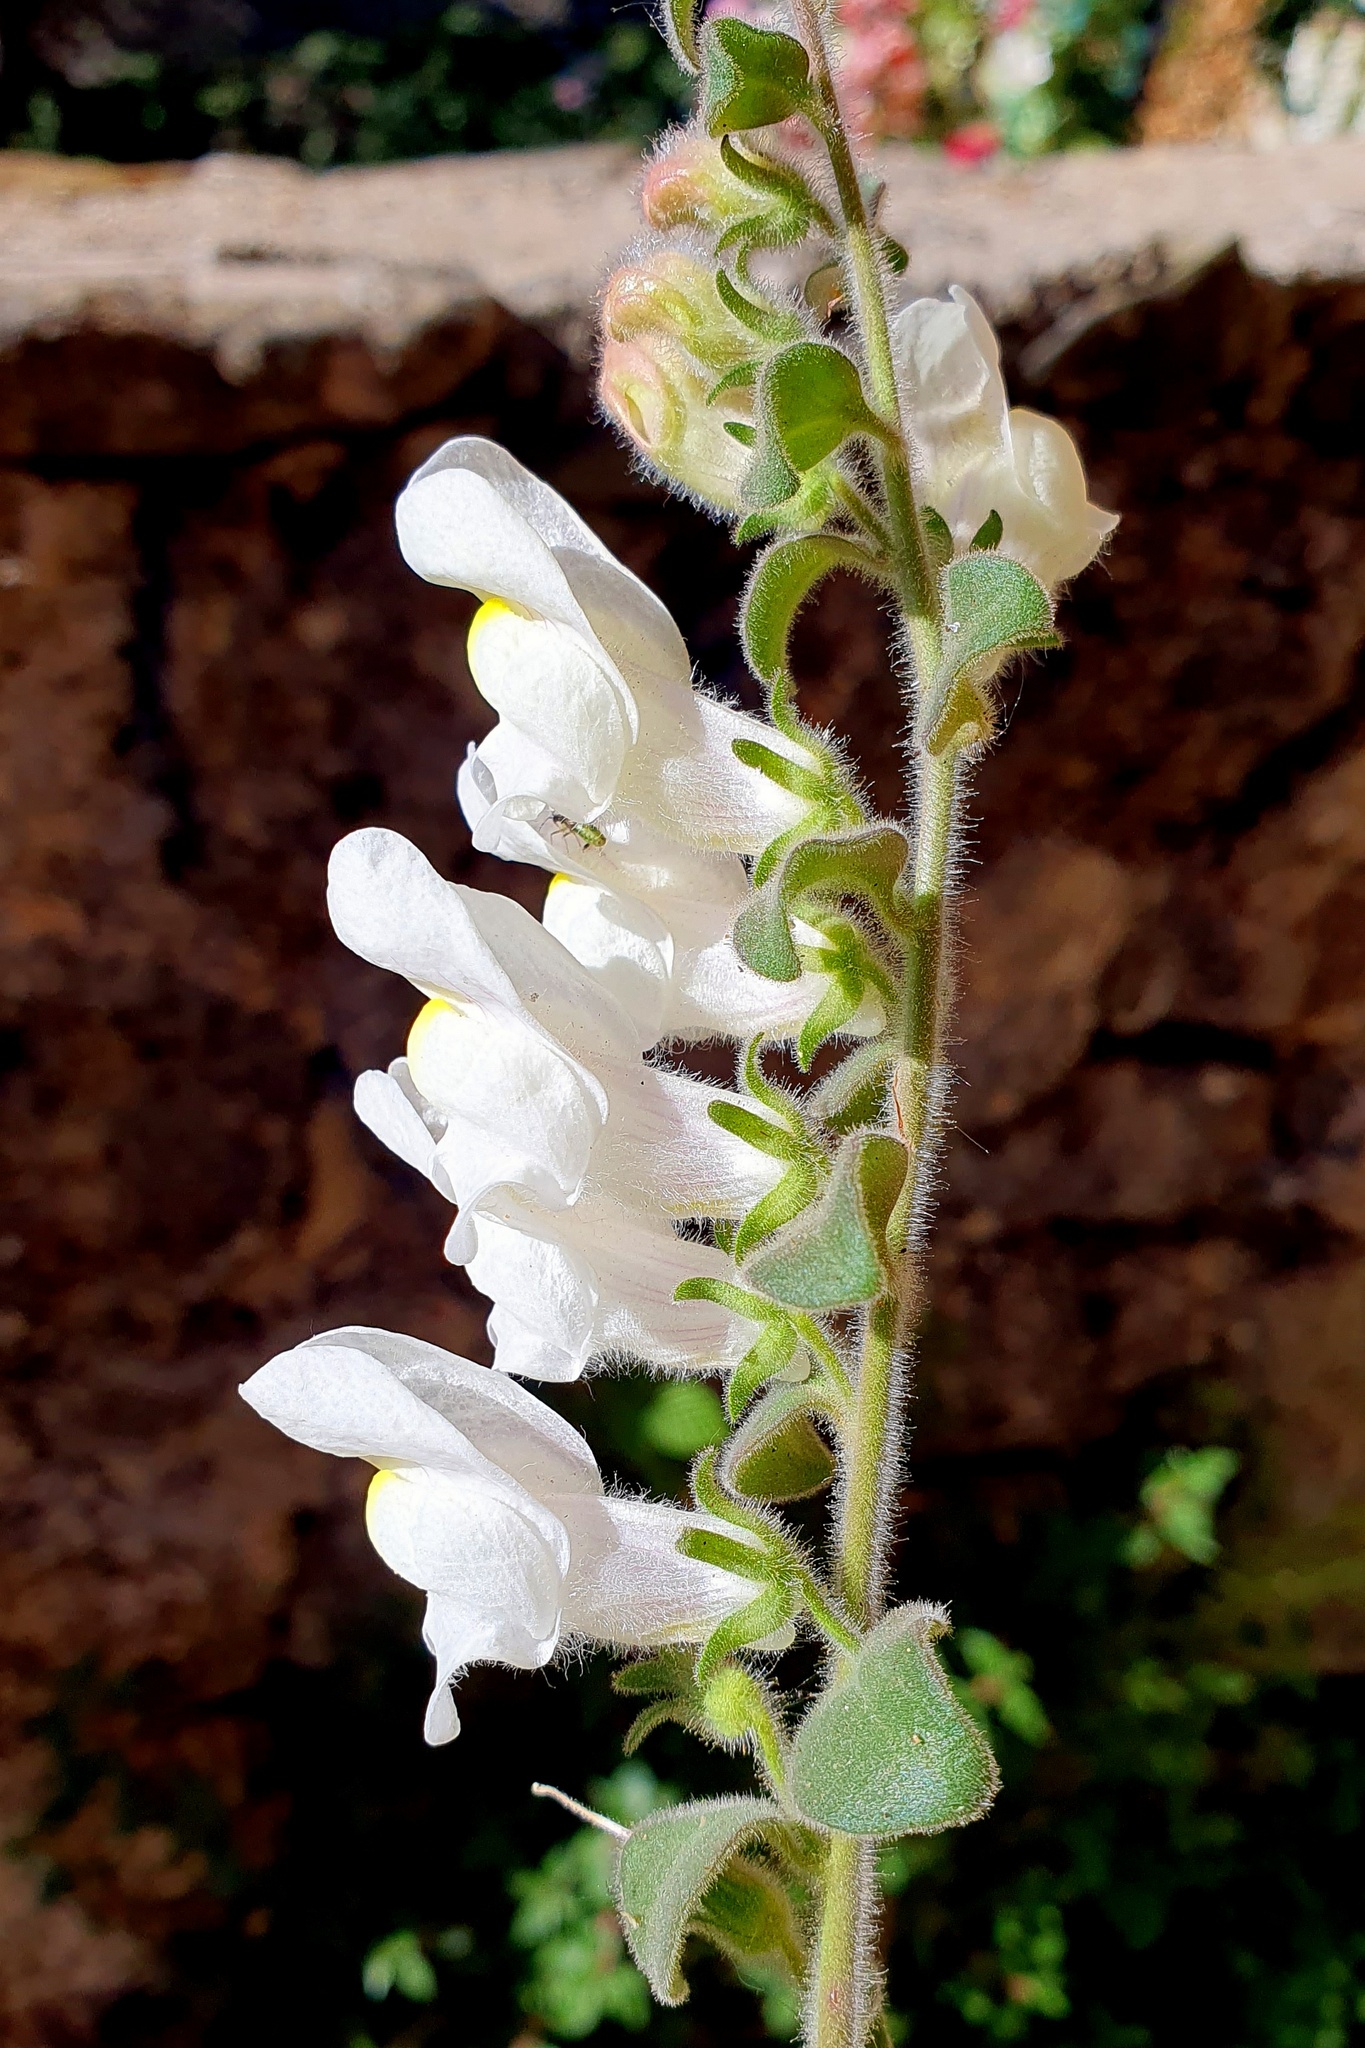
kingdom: Plantae
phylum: Tracheophyta
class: Magnoliopsida
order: Lamiales
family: Plantaginaceae
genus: Antirrhinum
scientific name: Antirrhinum molle
